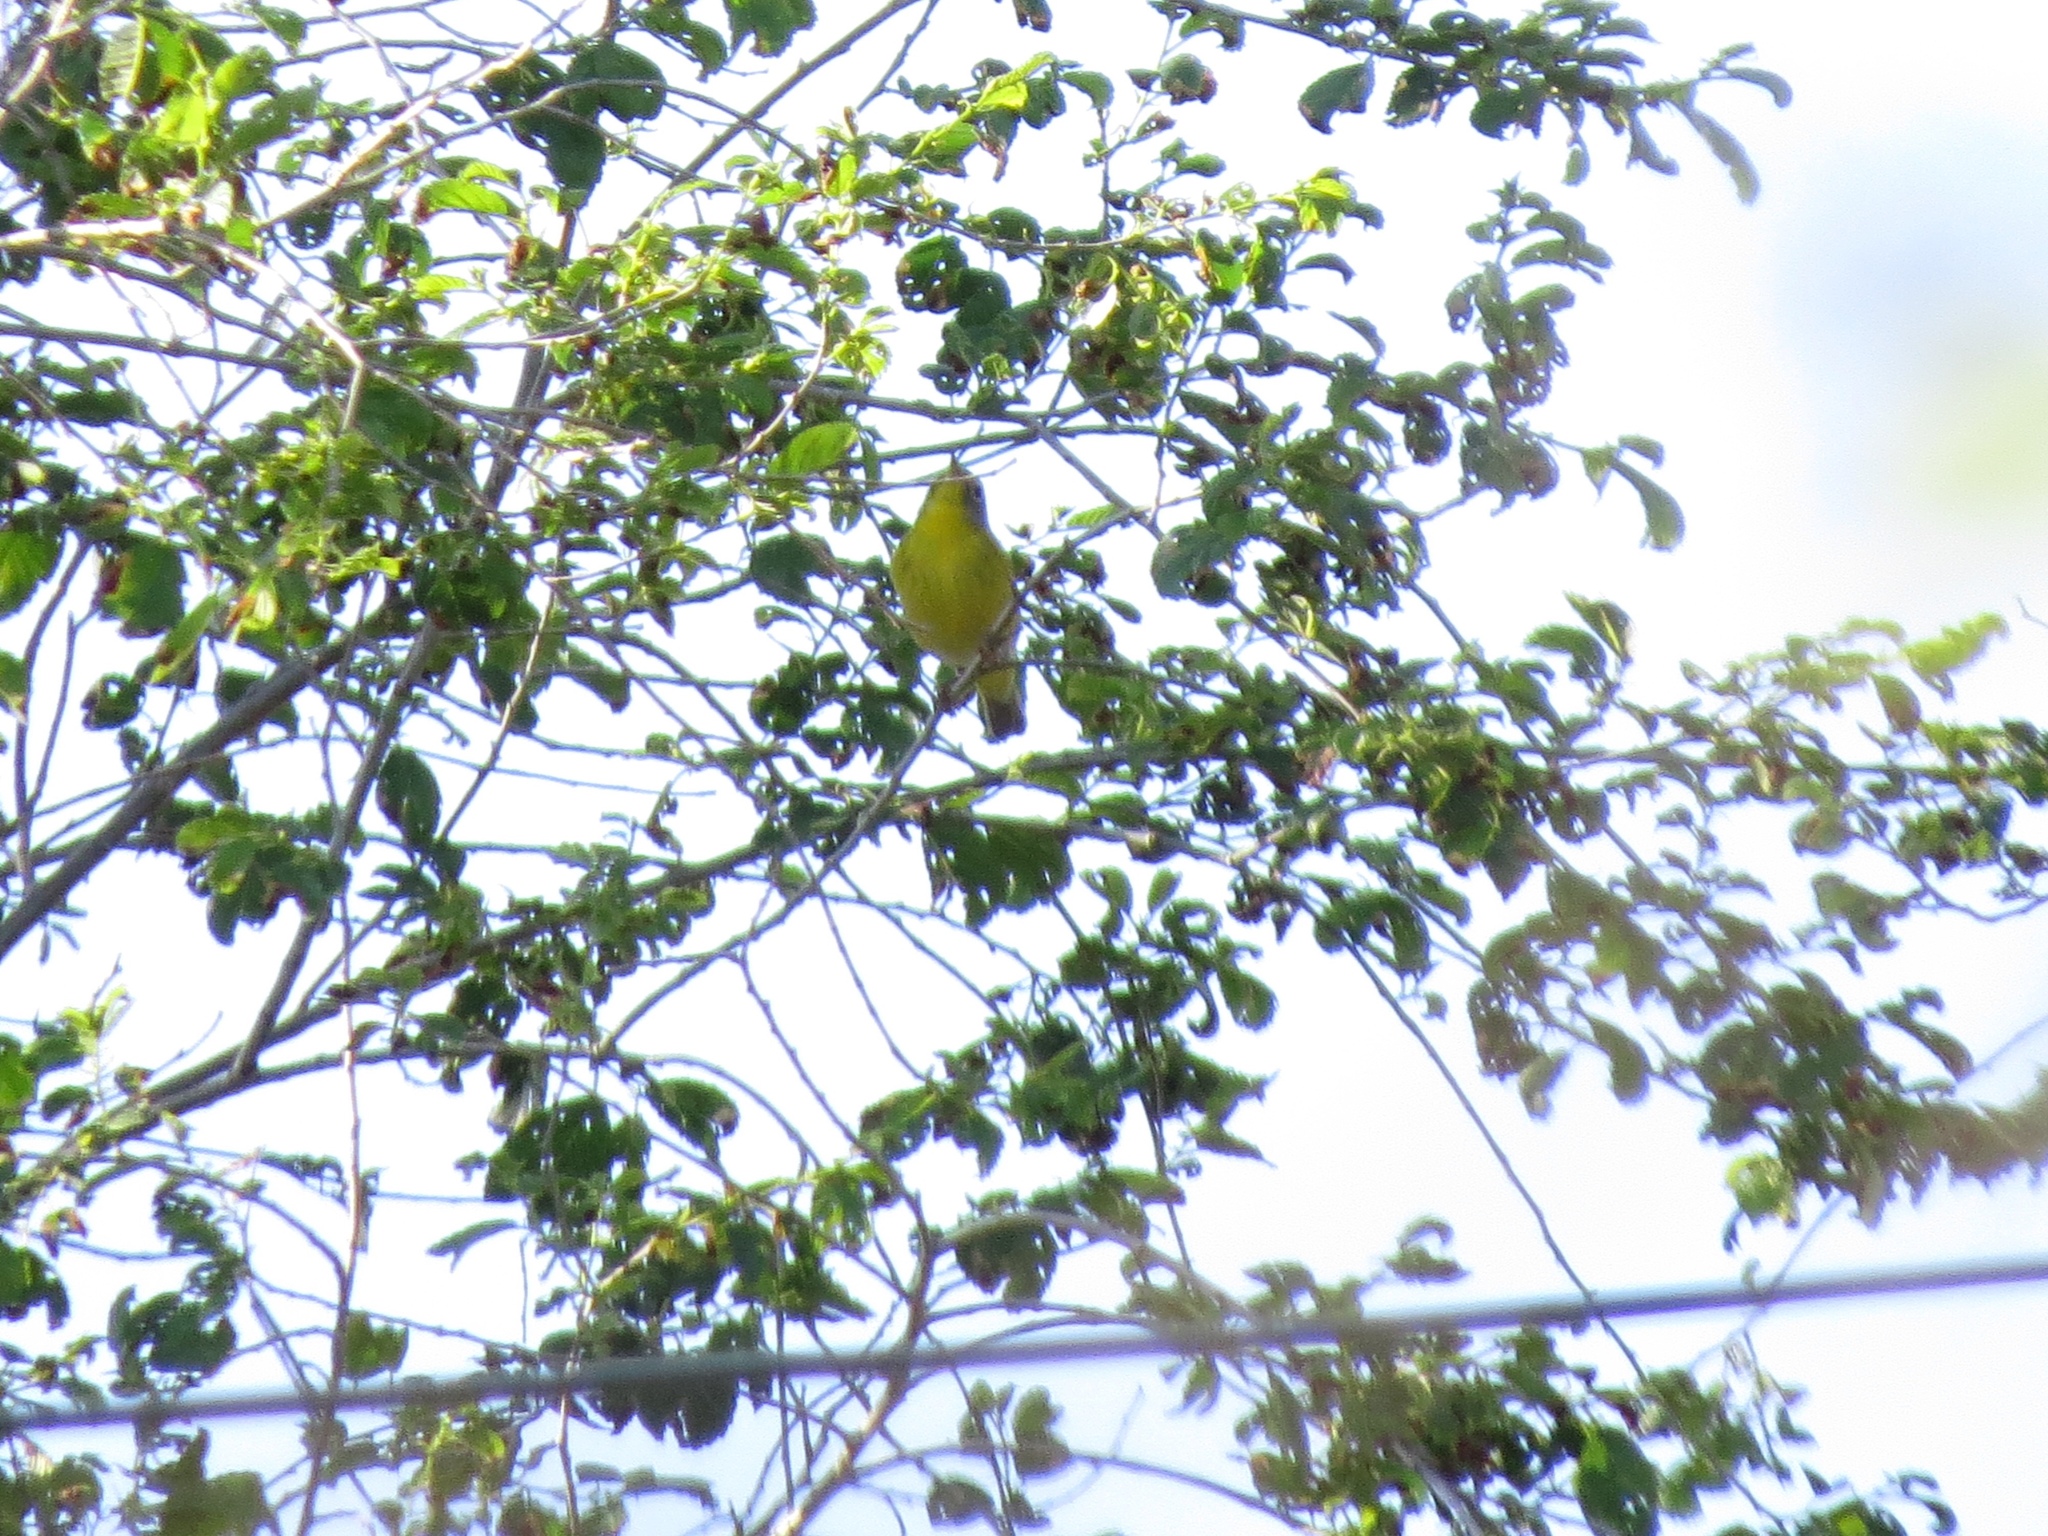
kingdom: Animalia
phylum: Chordata
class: Aves
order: Passeriformes
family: Parulidae
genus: Leiothlypis
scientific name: Leiothlypis ruficapilla
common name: Nashville warbler
